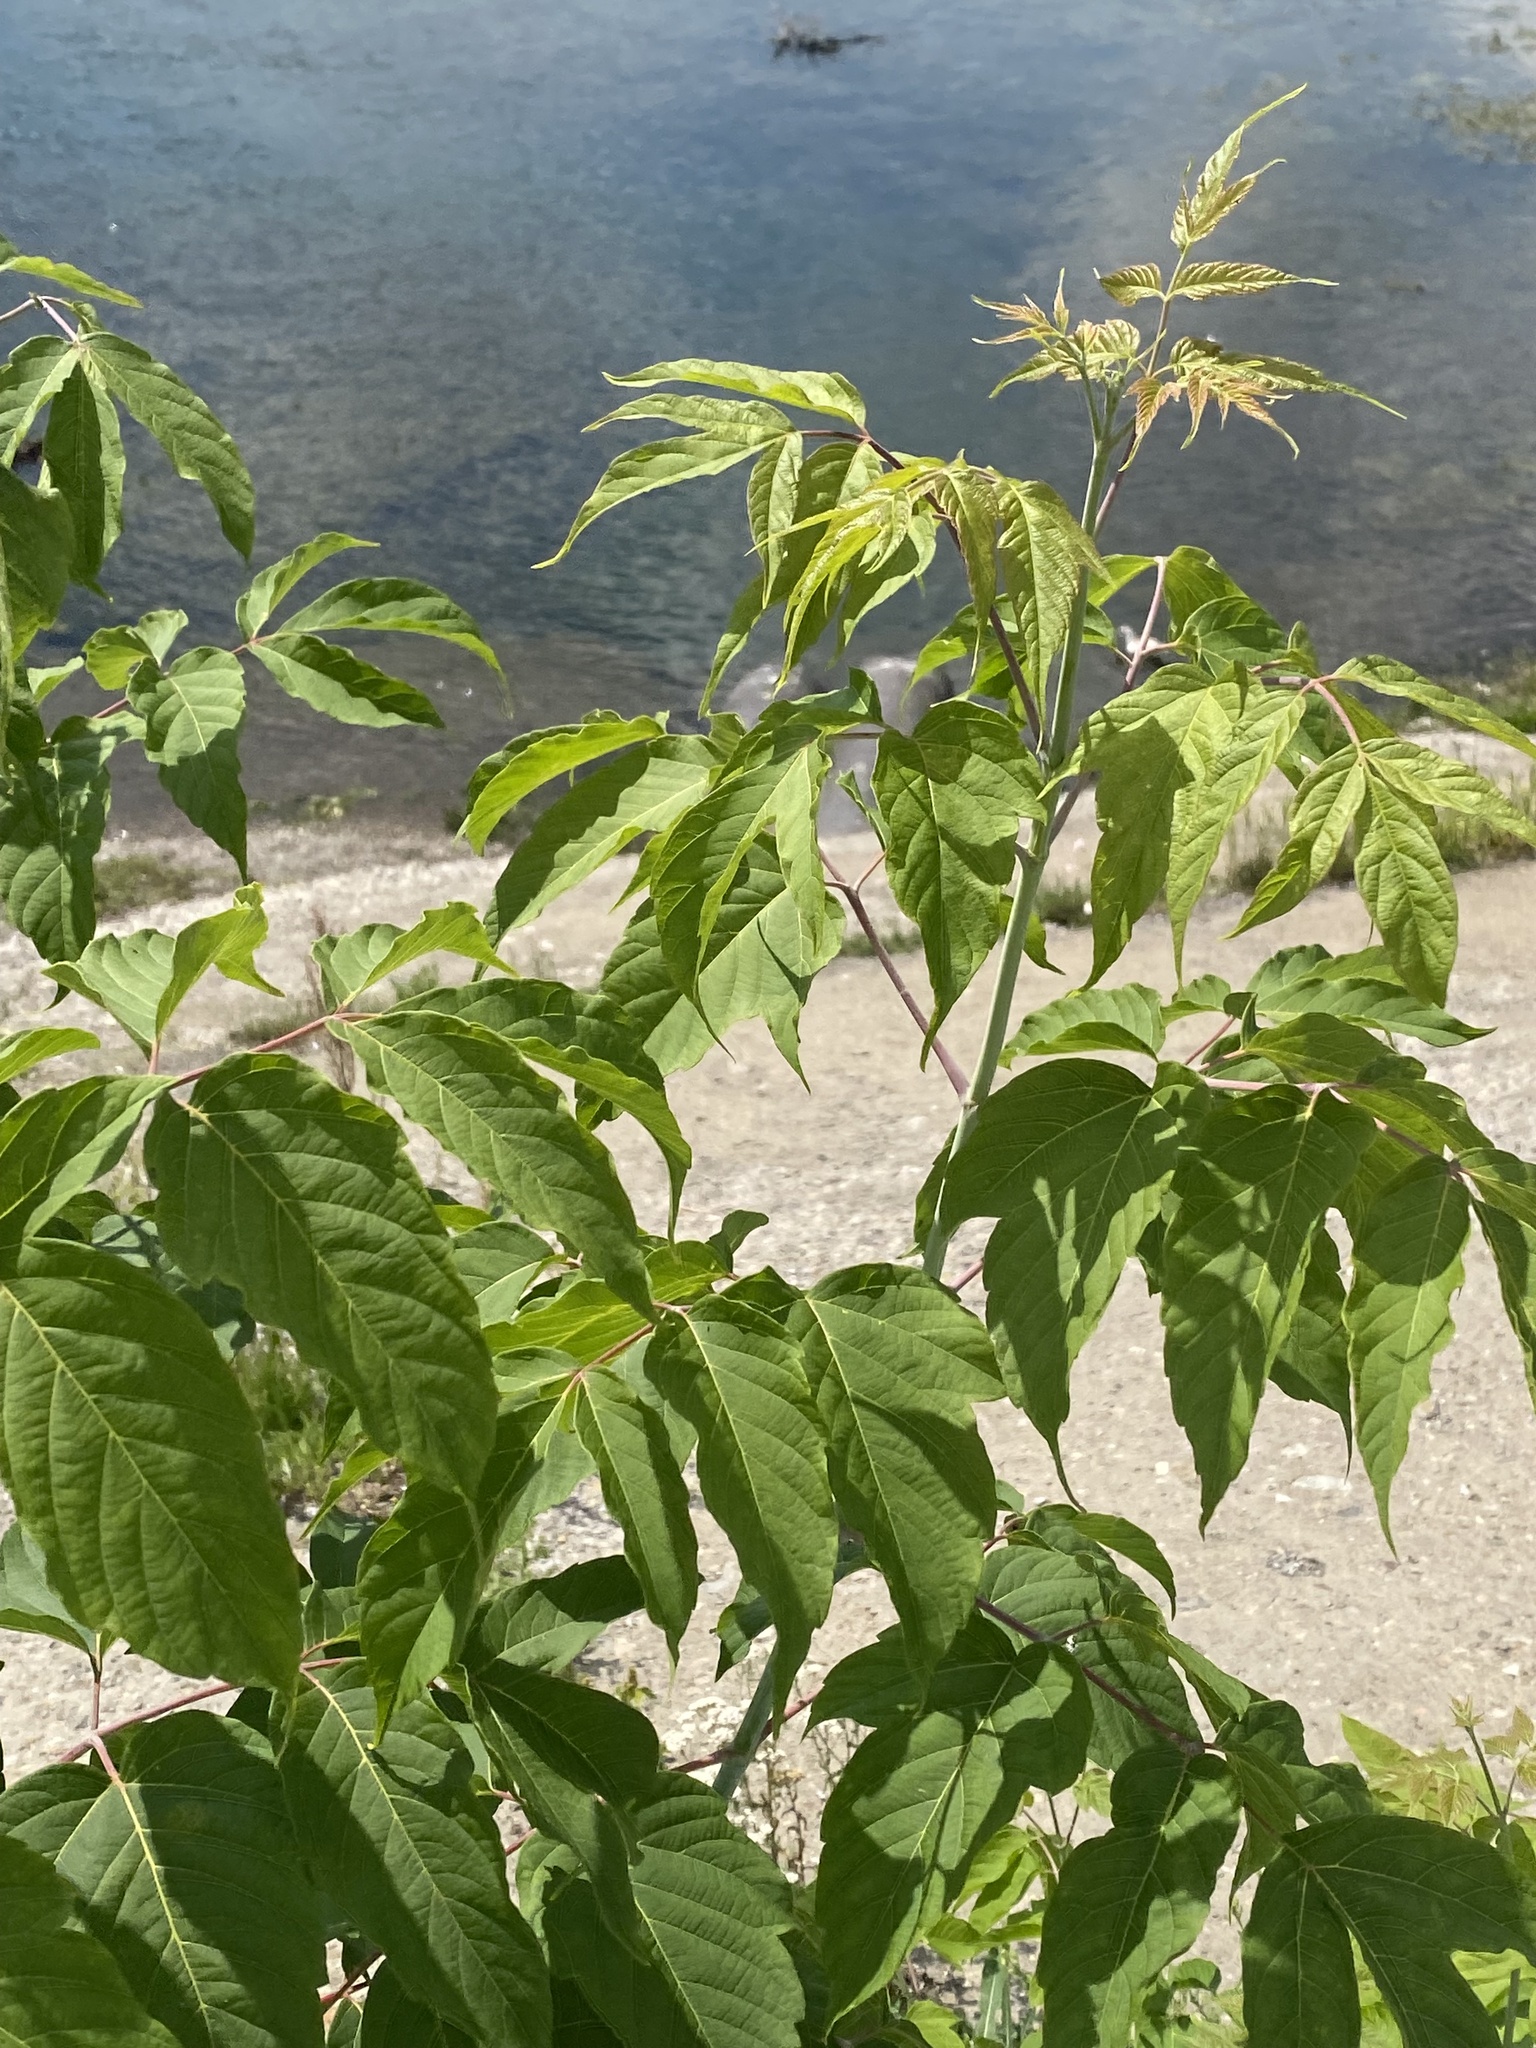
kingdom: Plantae
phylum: Tracheophyta
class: Magnoliopsida
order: Sapindales
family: Sapindaceae
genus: Acer
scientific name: Acer negundo
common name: Ashleaf maple
